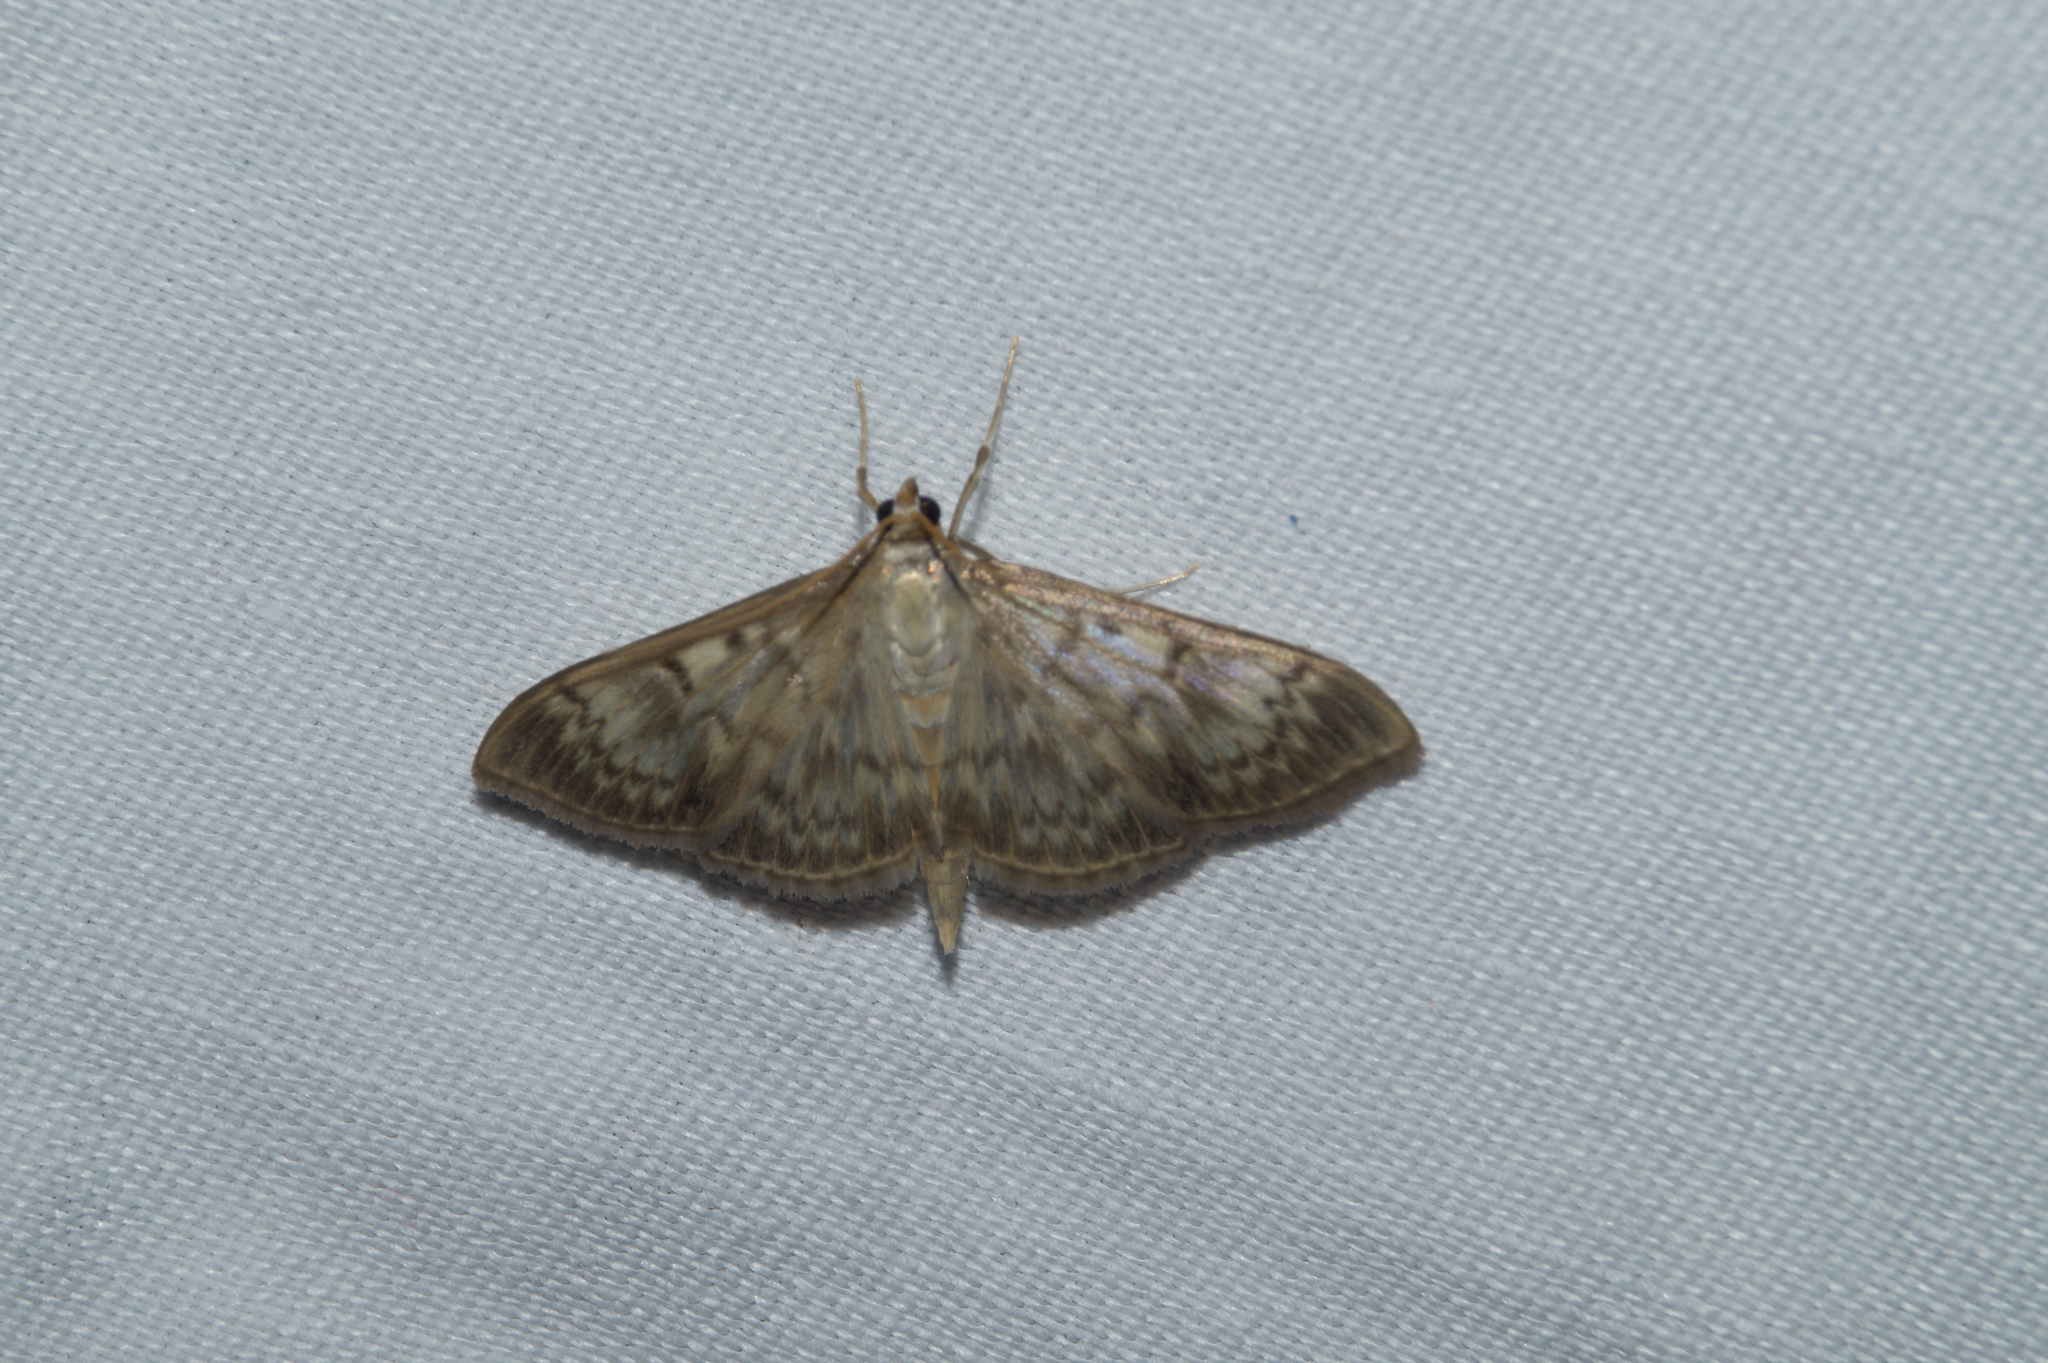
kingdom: Animalia
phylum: Arthropoda
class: Insecta
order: Lepidoptera
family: Crambidae
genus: Patania
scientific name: Patania ruralis
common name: Mother of pearl
